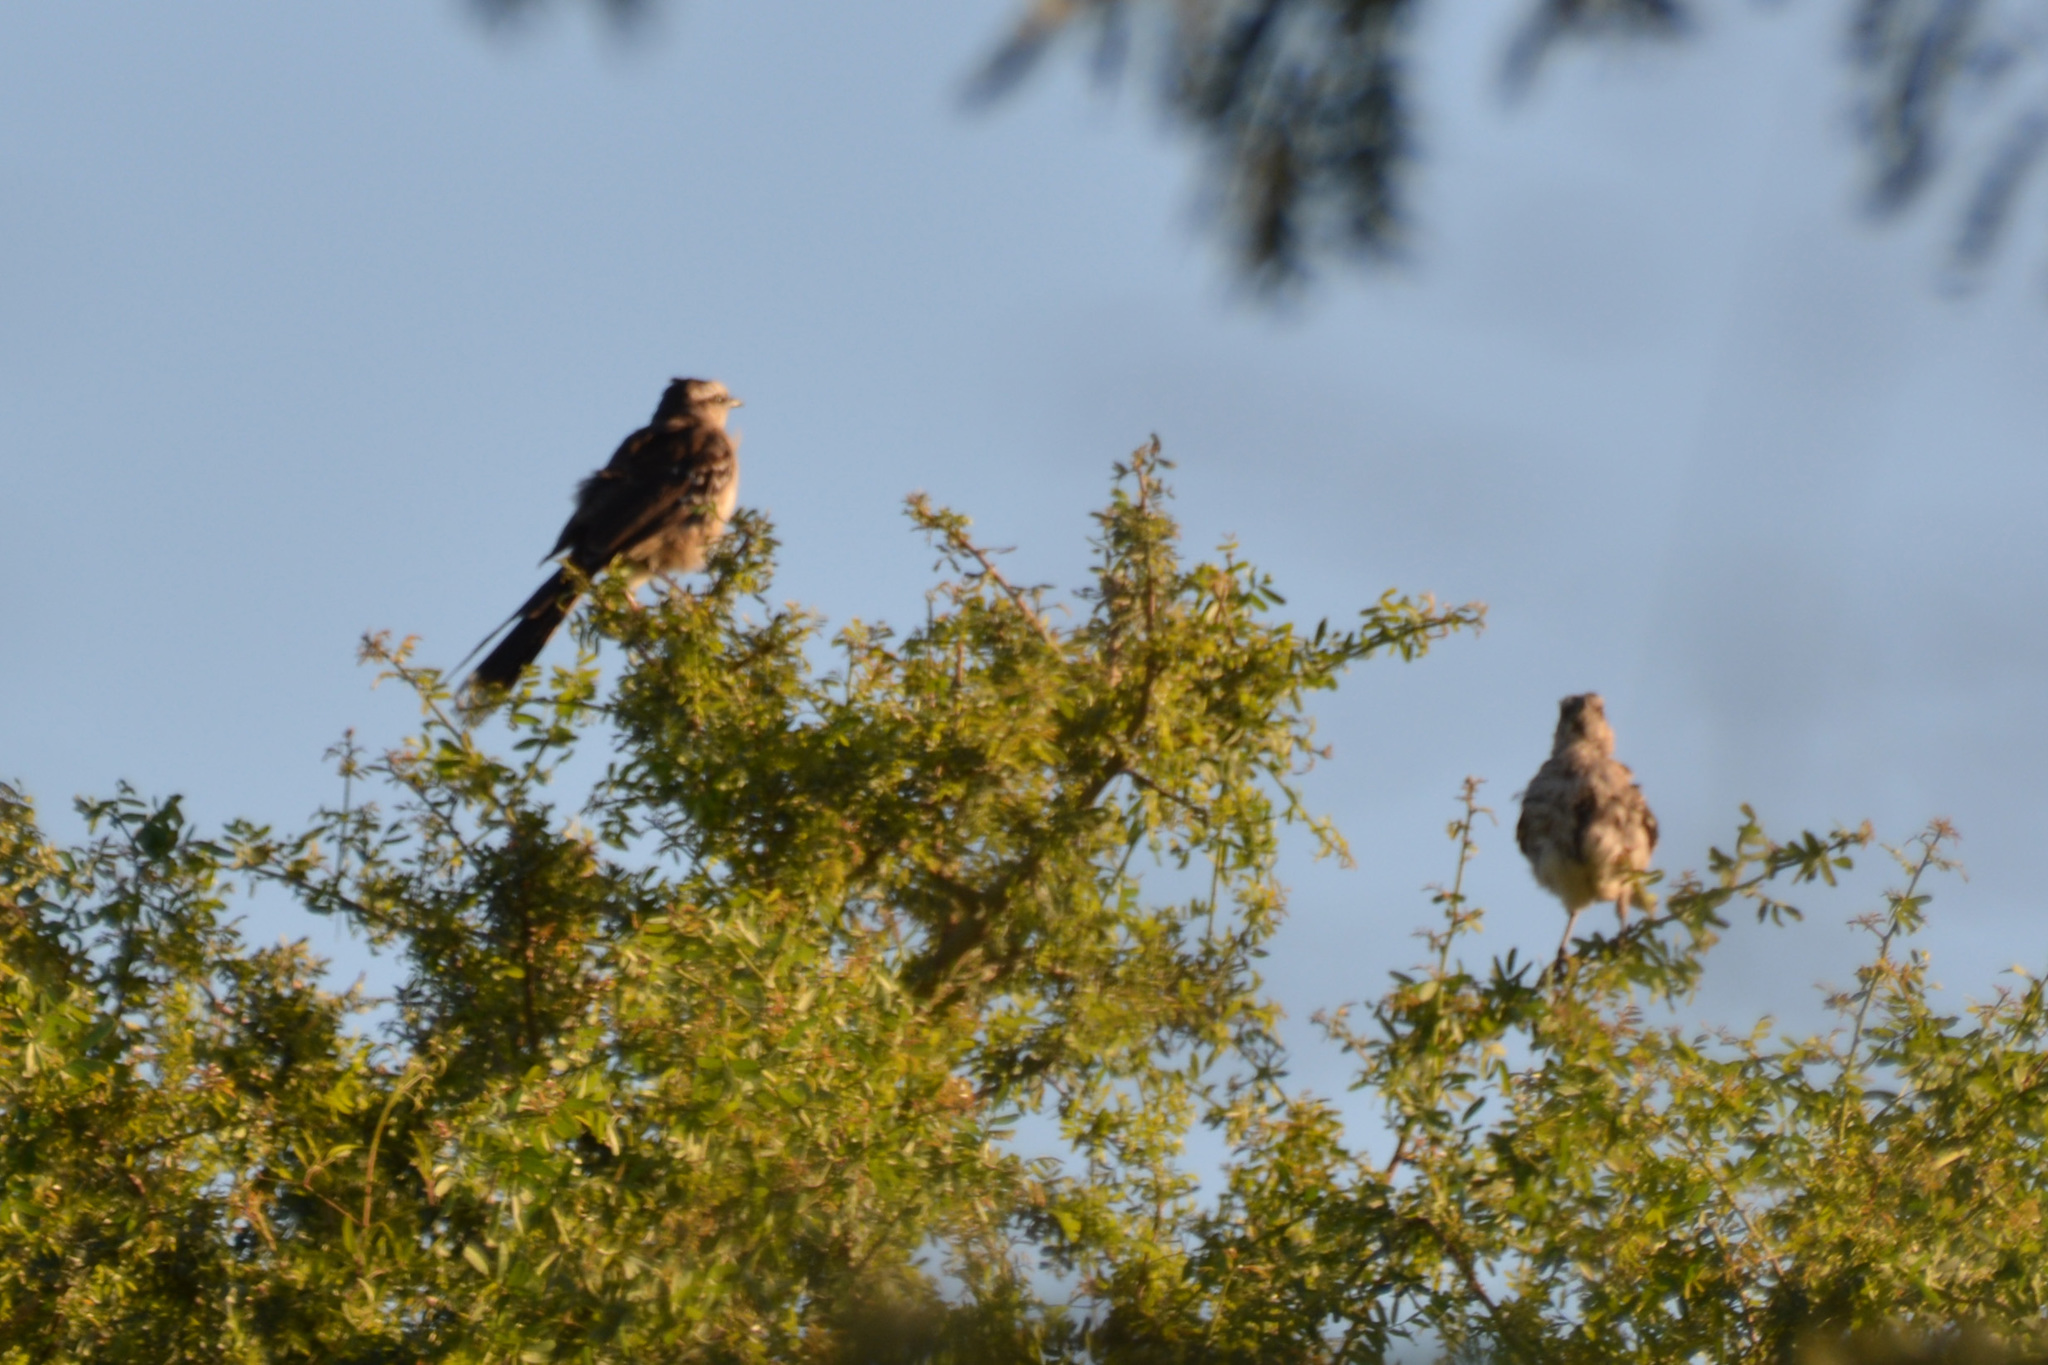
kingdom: Animalia
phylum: Chordata
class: Aves
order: Passeriformes
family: Mimidae
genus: Mimus
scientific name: Mimus saturninus
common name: Chalk-browed mockingbird
